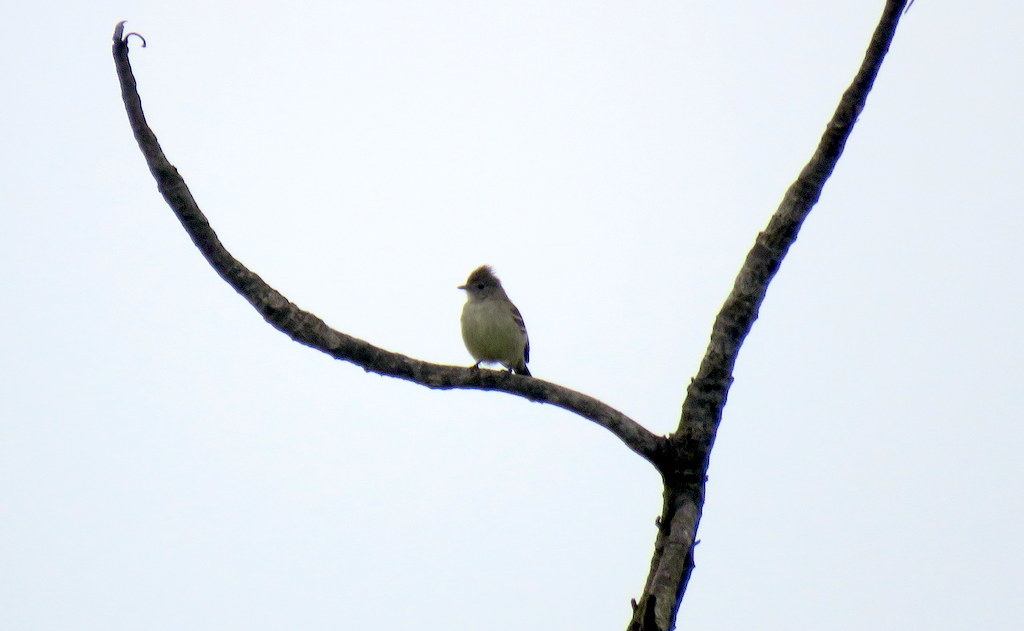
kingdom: Animalia
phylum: Chordata
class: Aves
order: Passeriformes
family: Tyrannidae
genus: Elaenia
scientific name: Elaenia flavogaster
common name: Yellow-bellied elaenia
